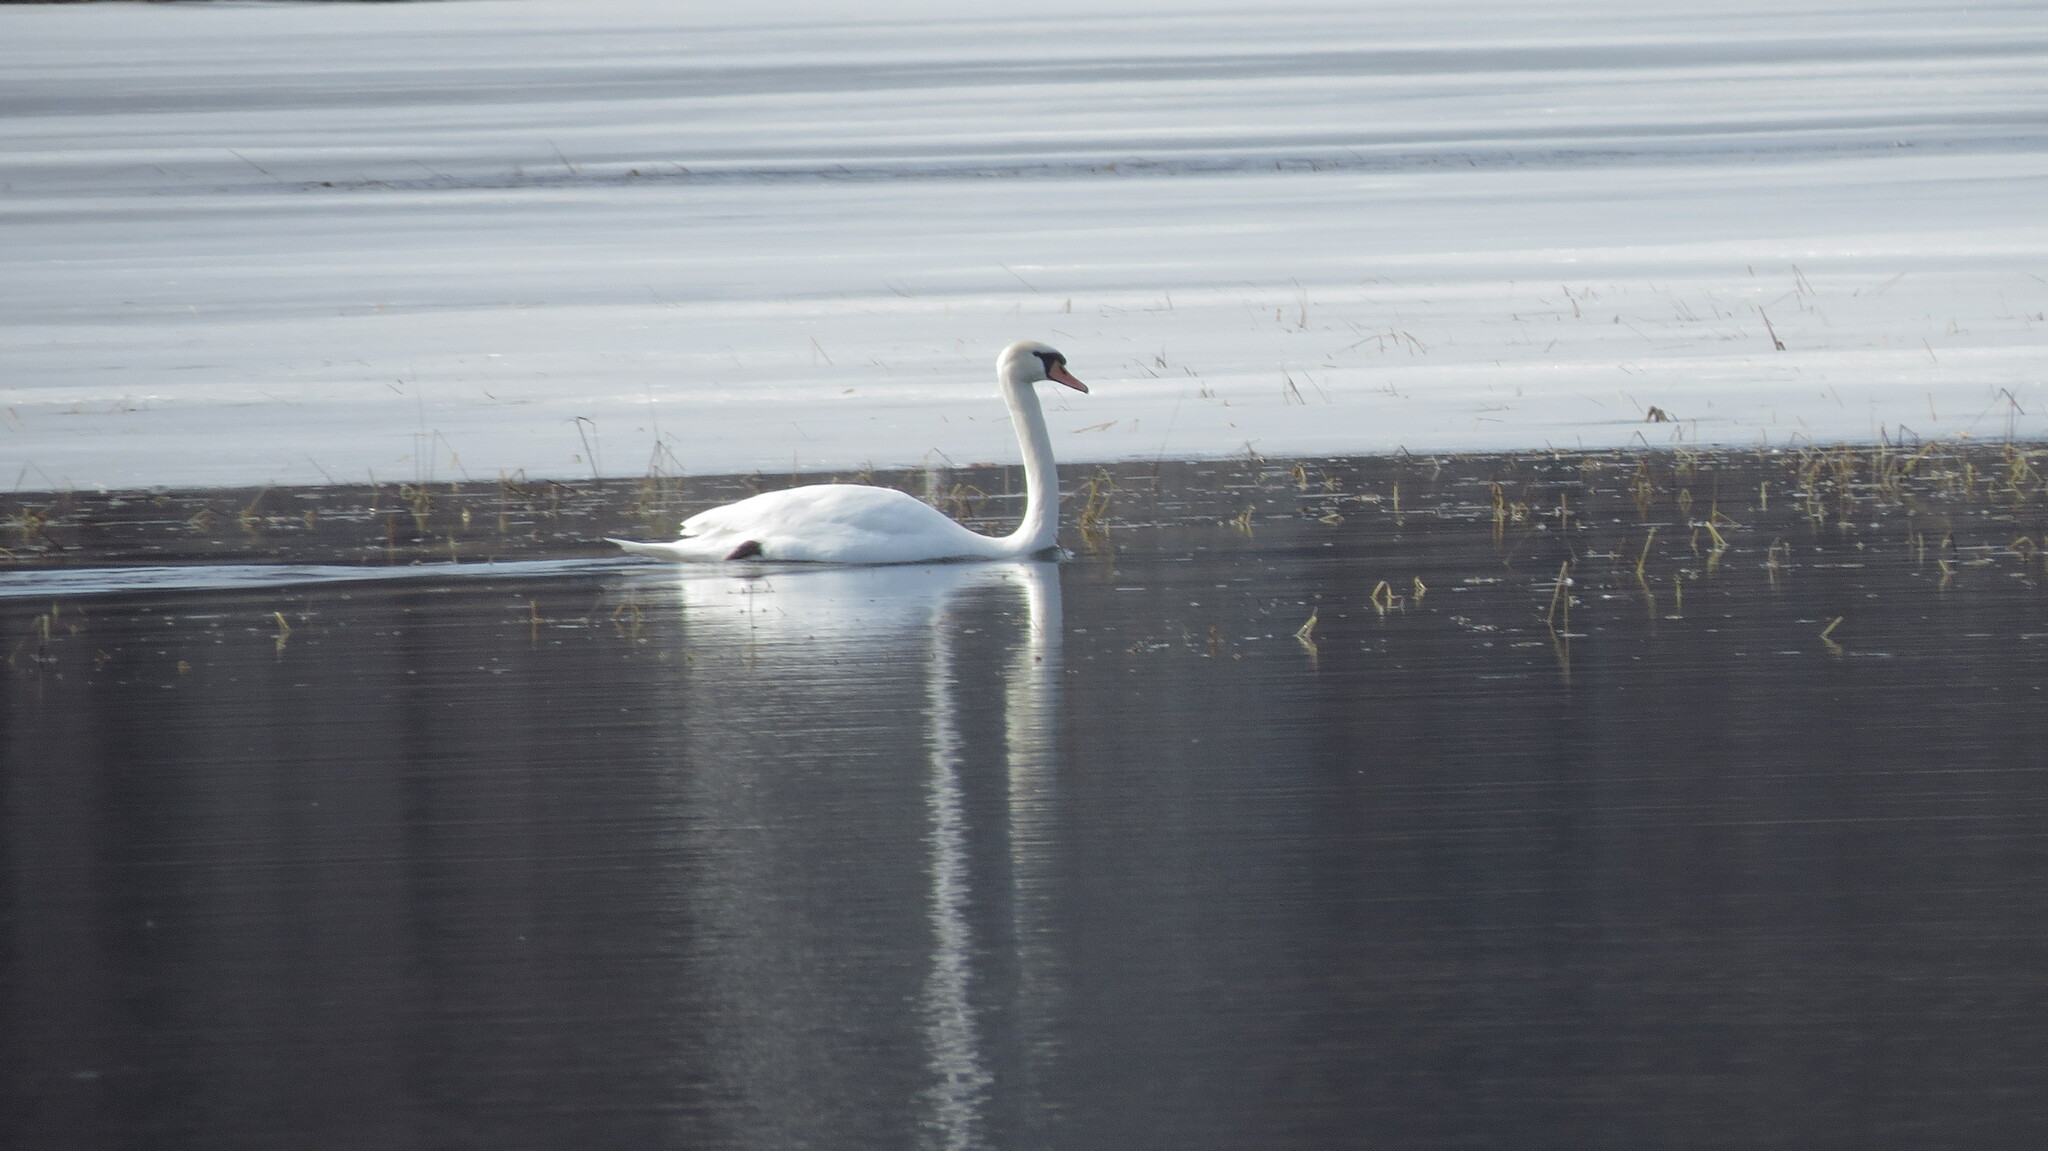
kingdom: Animalia
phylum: Chordata
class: Aves
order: Anseriformes
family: Anatidae
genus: Cygnus
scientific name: Cygnus olor
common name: Mute swan
